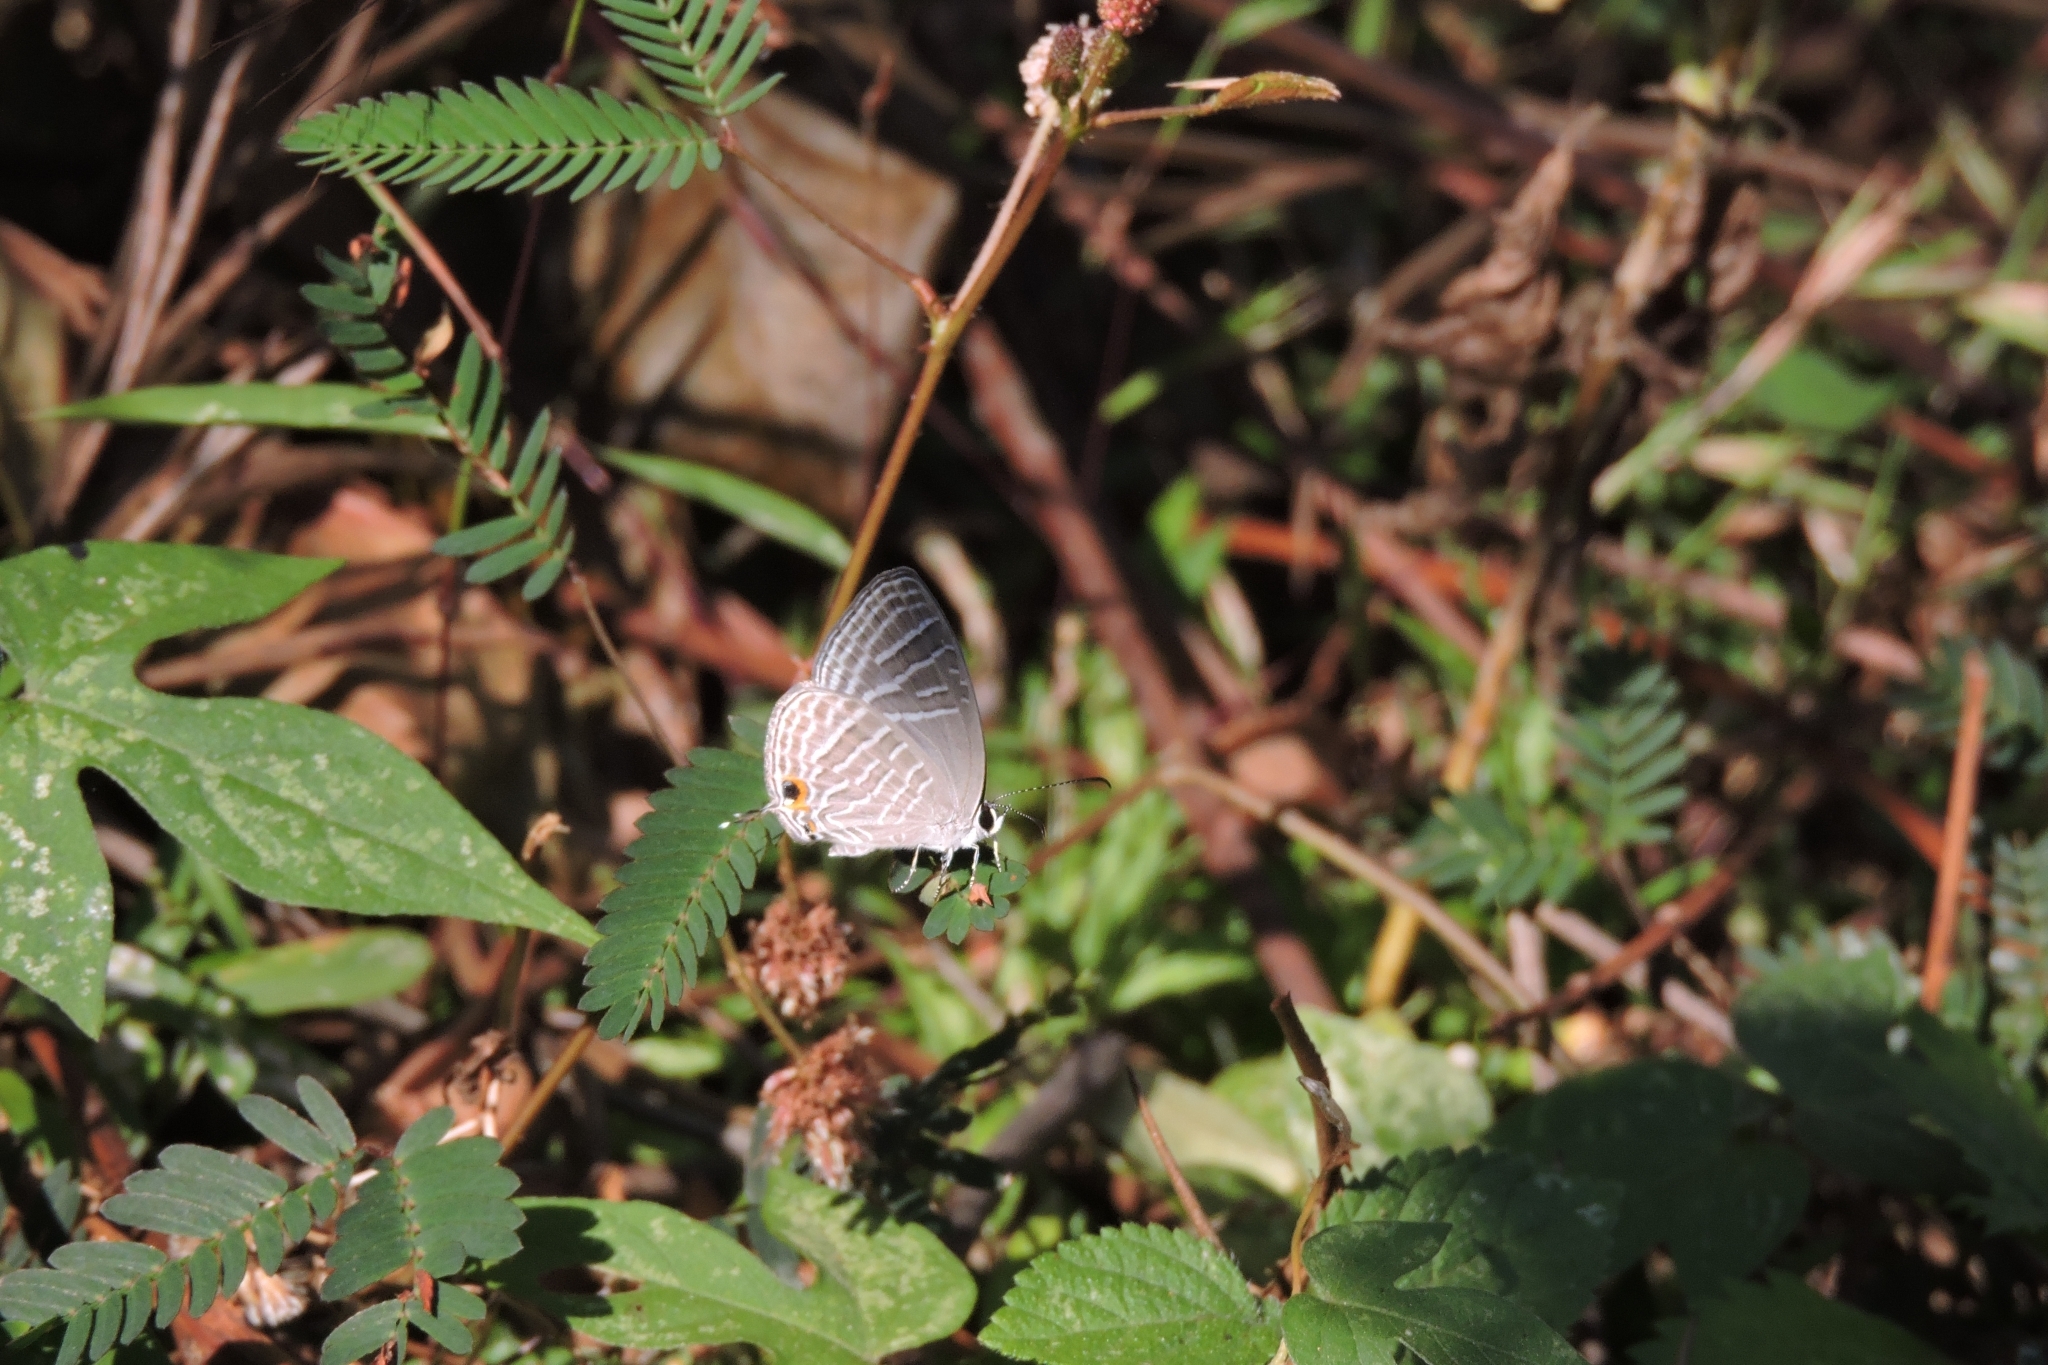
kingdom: Animalia
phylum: Arthropoda
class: Insecta
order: Lepidoptera
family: Lycaenidae
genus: Jamides
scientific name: Jamides celeno
